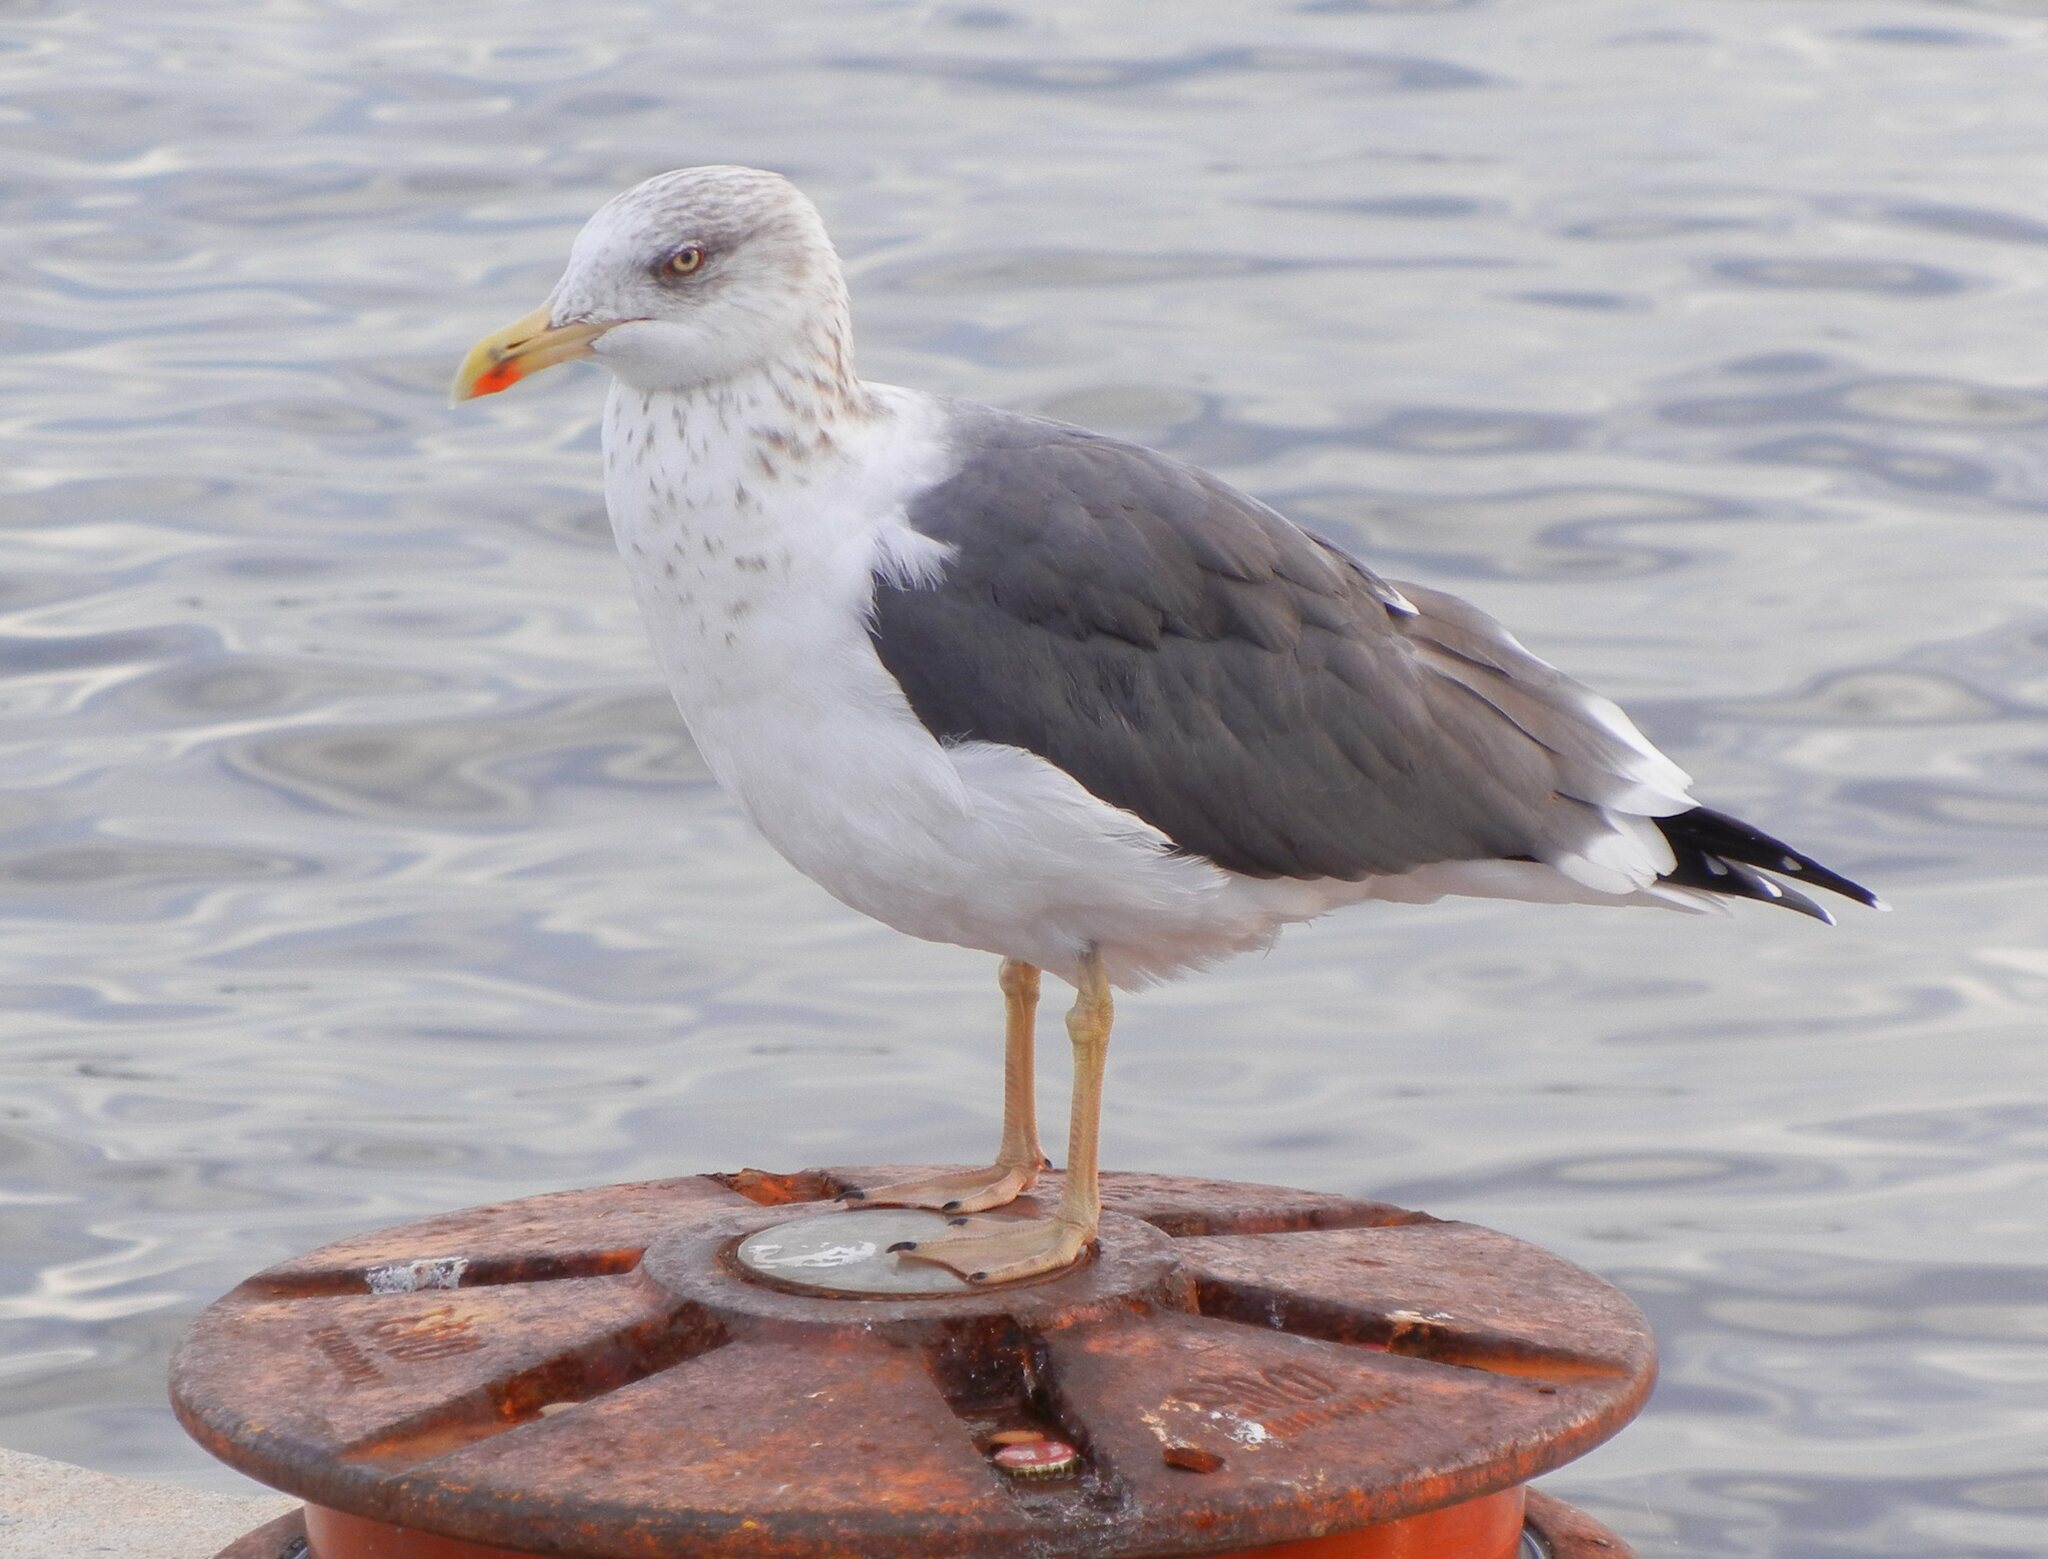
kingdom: Animalia
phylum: Chordata
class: Aves
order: Charadriiformes
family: Laridae
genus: Larus
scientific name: Larus fuscus
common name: Lesser black-backed gull
